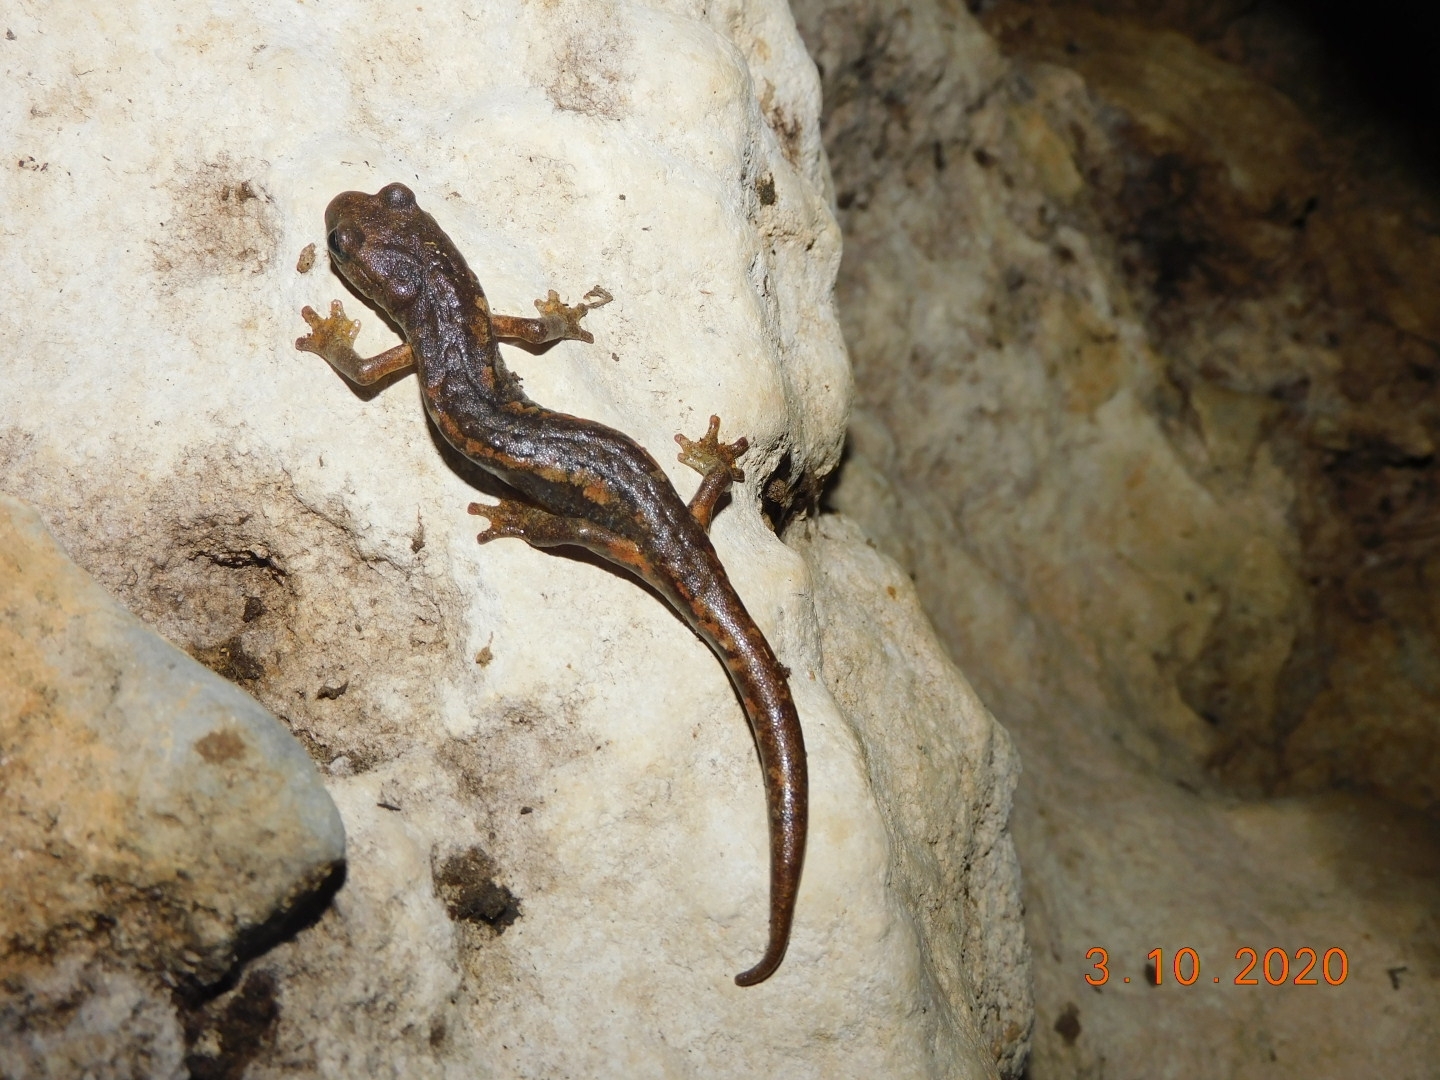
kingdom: Animalia
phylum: Chordata
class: Amphibia
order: Caudata
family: Plethodontidae
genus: Speleomantes
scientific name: Speleomantes ambrosii
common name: Ambrosi's cave salamander
